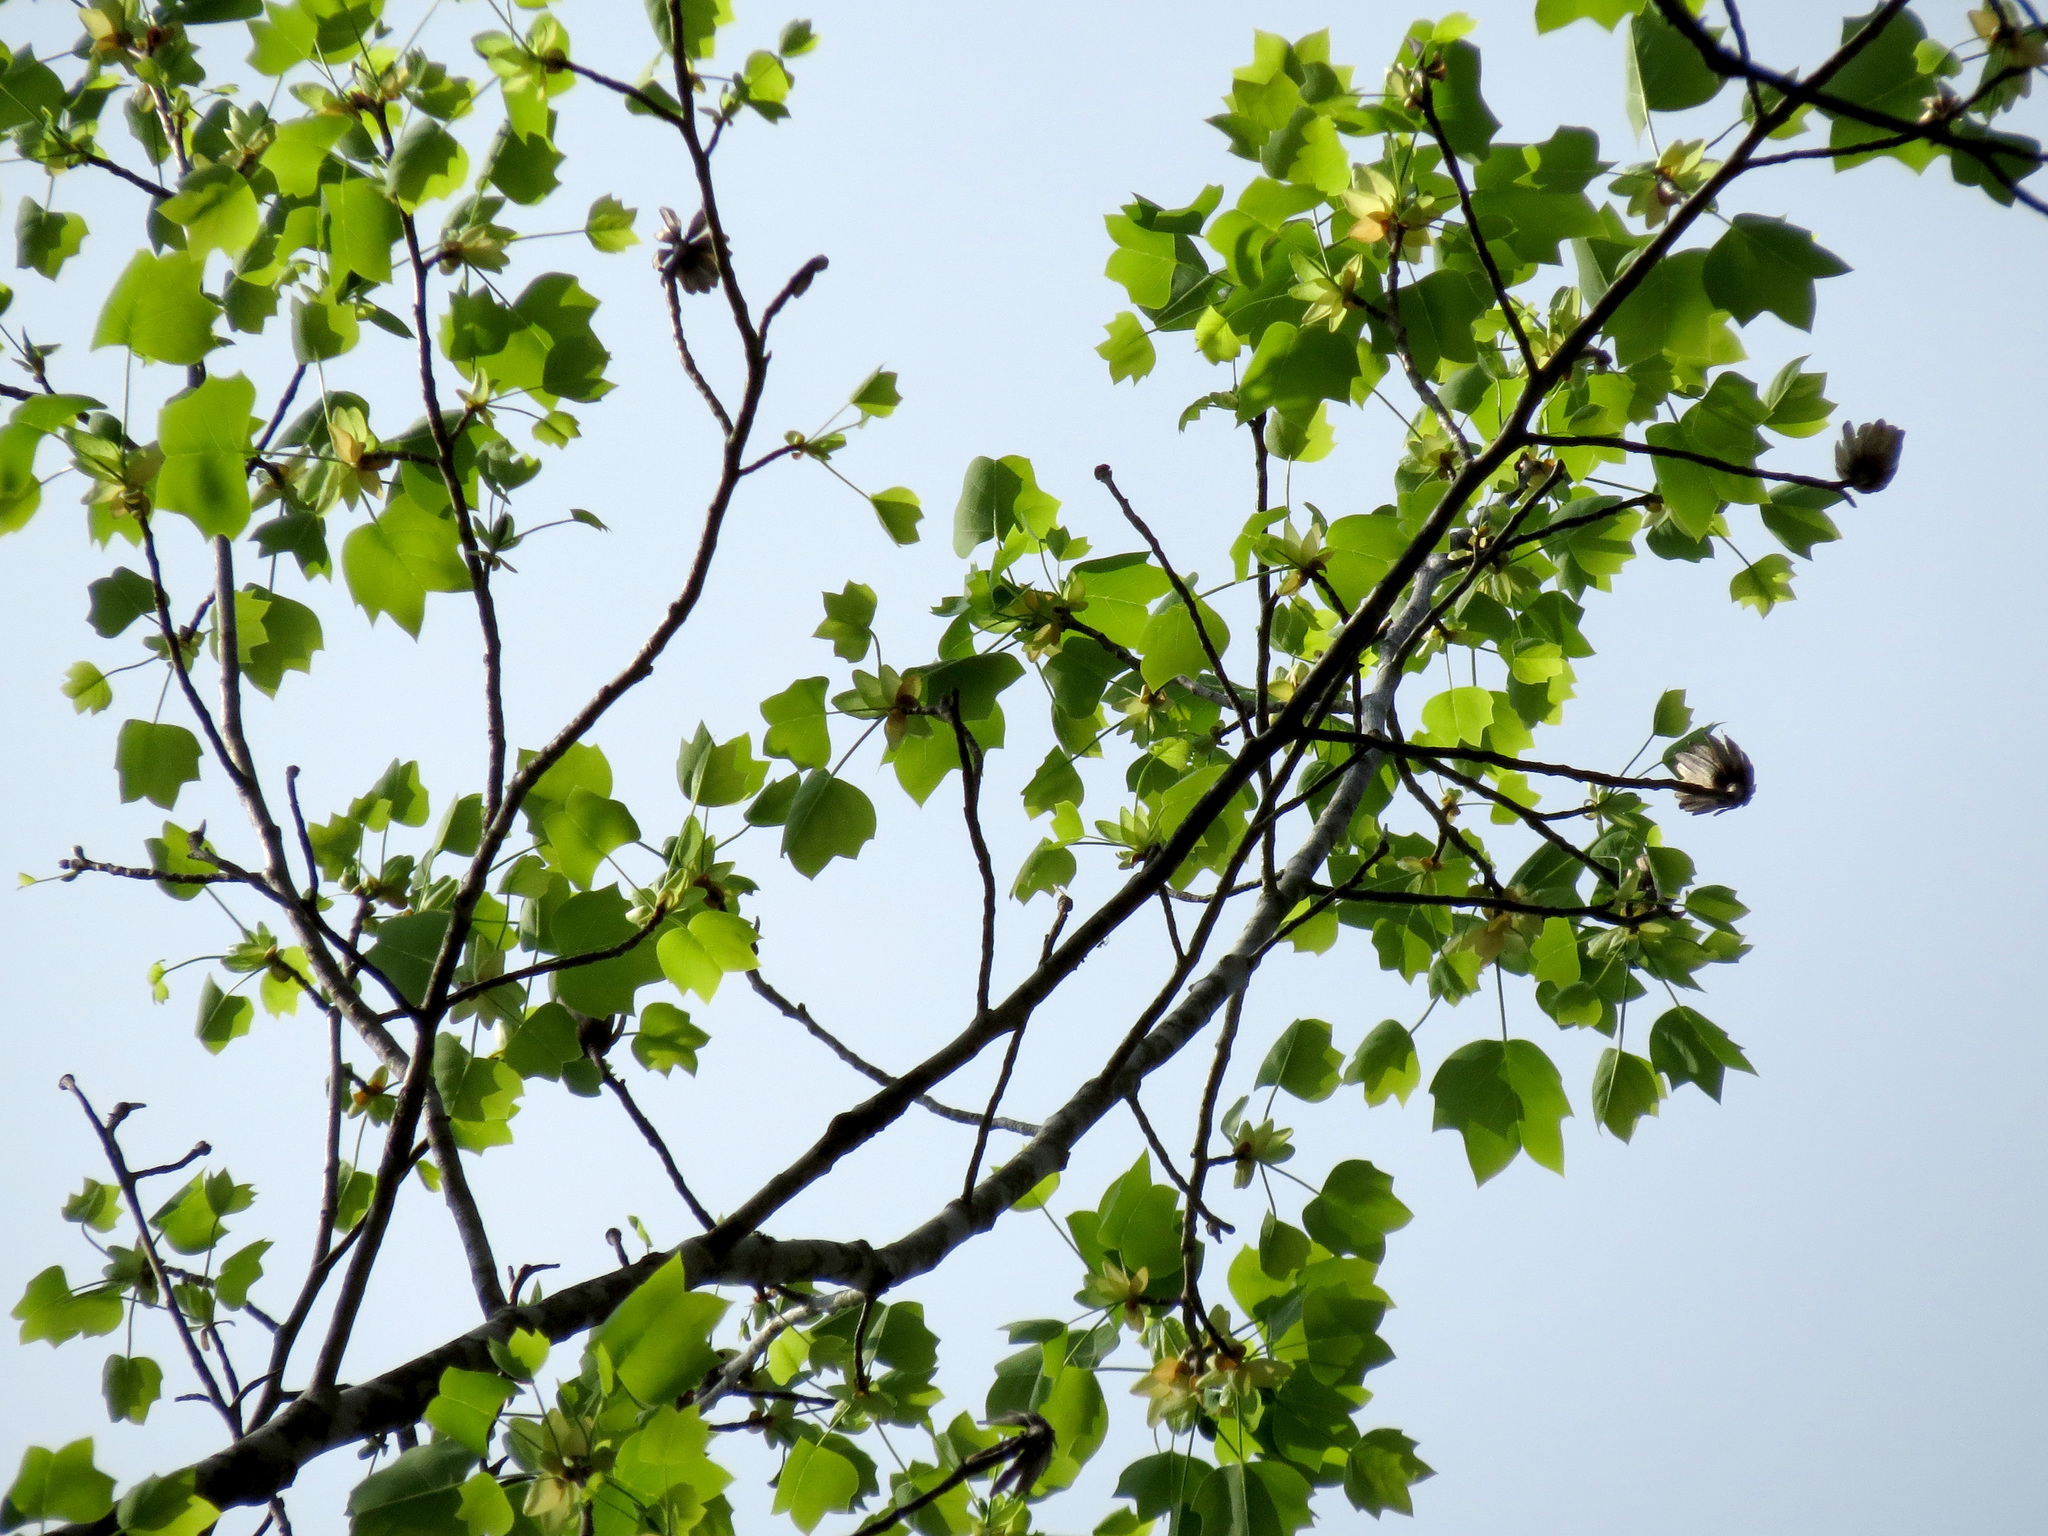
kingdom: Plantae
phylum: Tracheophyta
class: Magnoliopsida
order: Magnoliales
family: Magnoliaceae
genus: Liriodendron
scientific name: Liriodendron tulipifera
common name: Tulip tree
